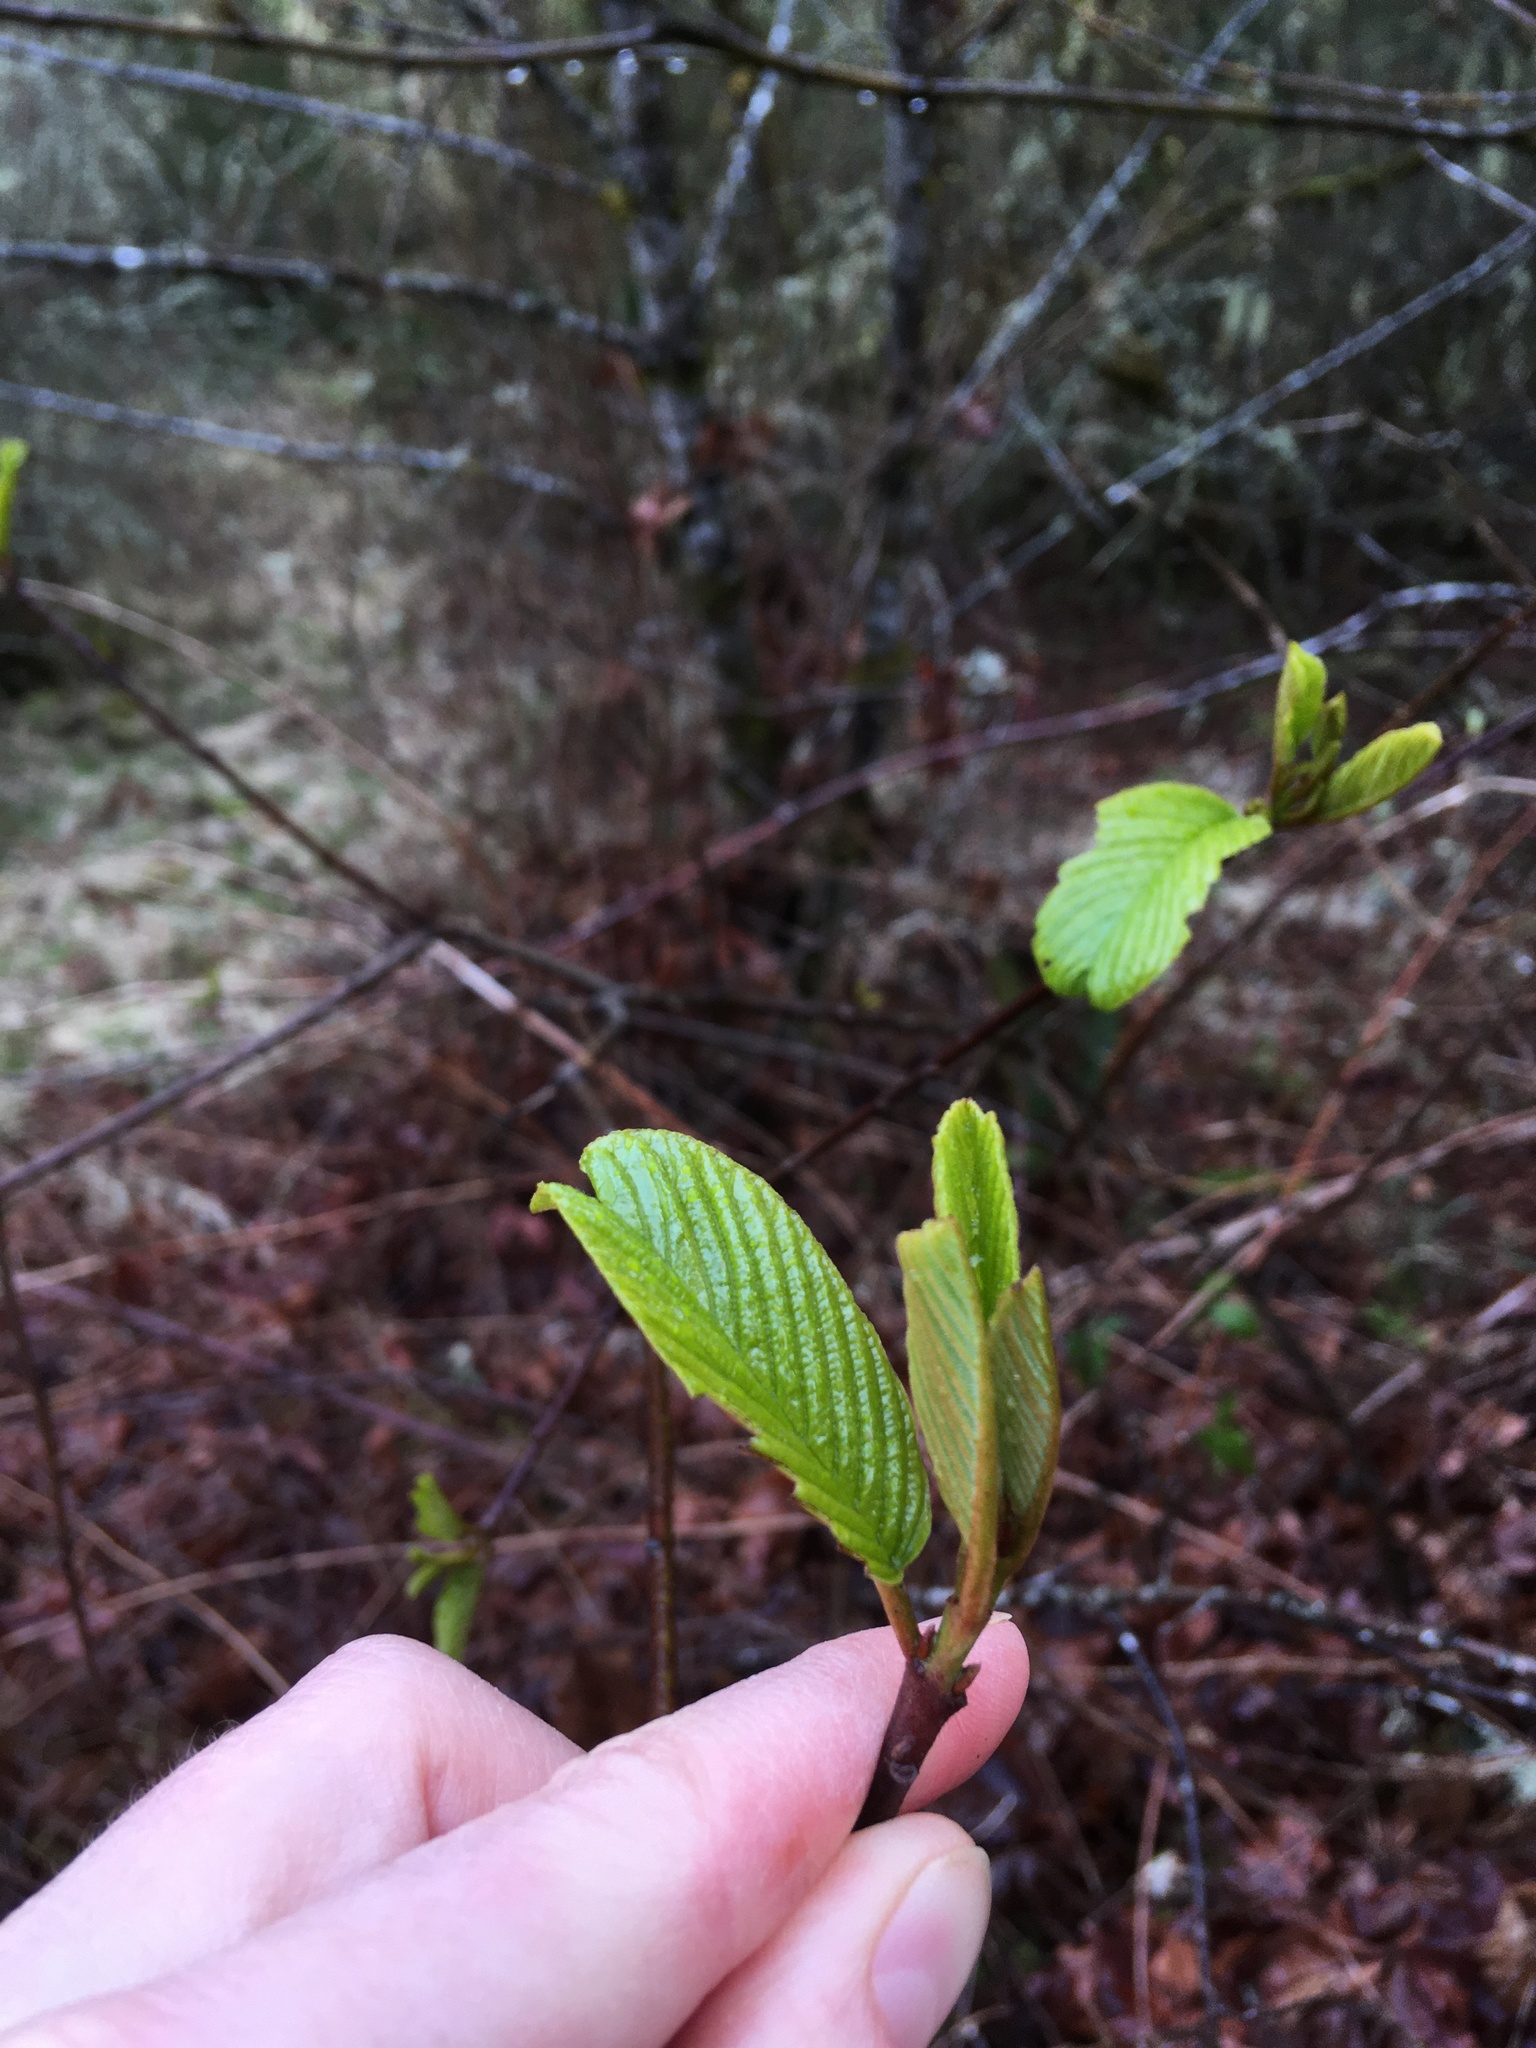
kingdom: Plantae
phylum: Tracheophyta
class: Magnoliopsida
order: Rosales
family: Rhamnaceae
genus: Frangula
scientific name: Frangula purshiana
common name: Cascara buckthorn
